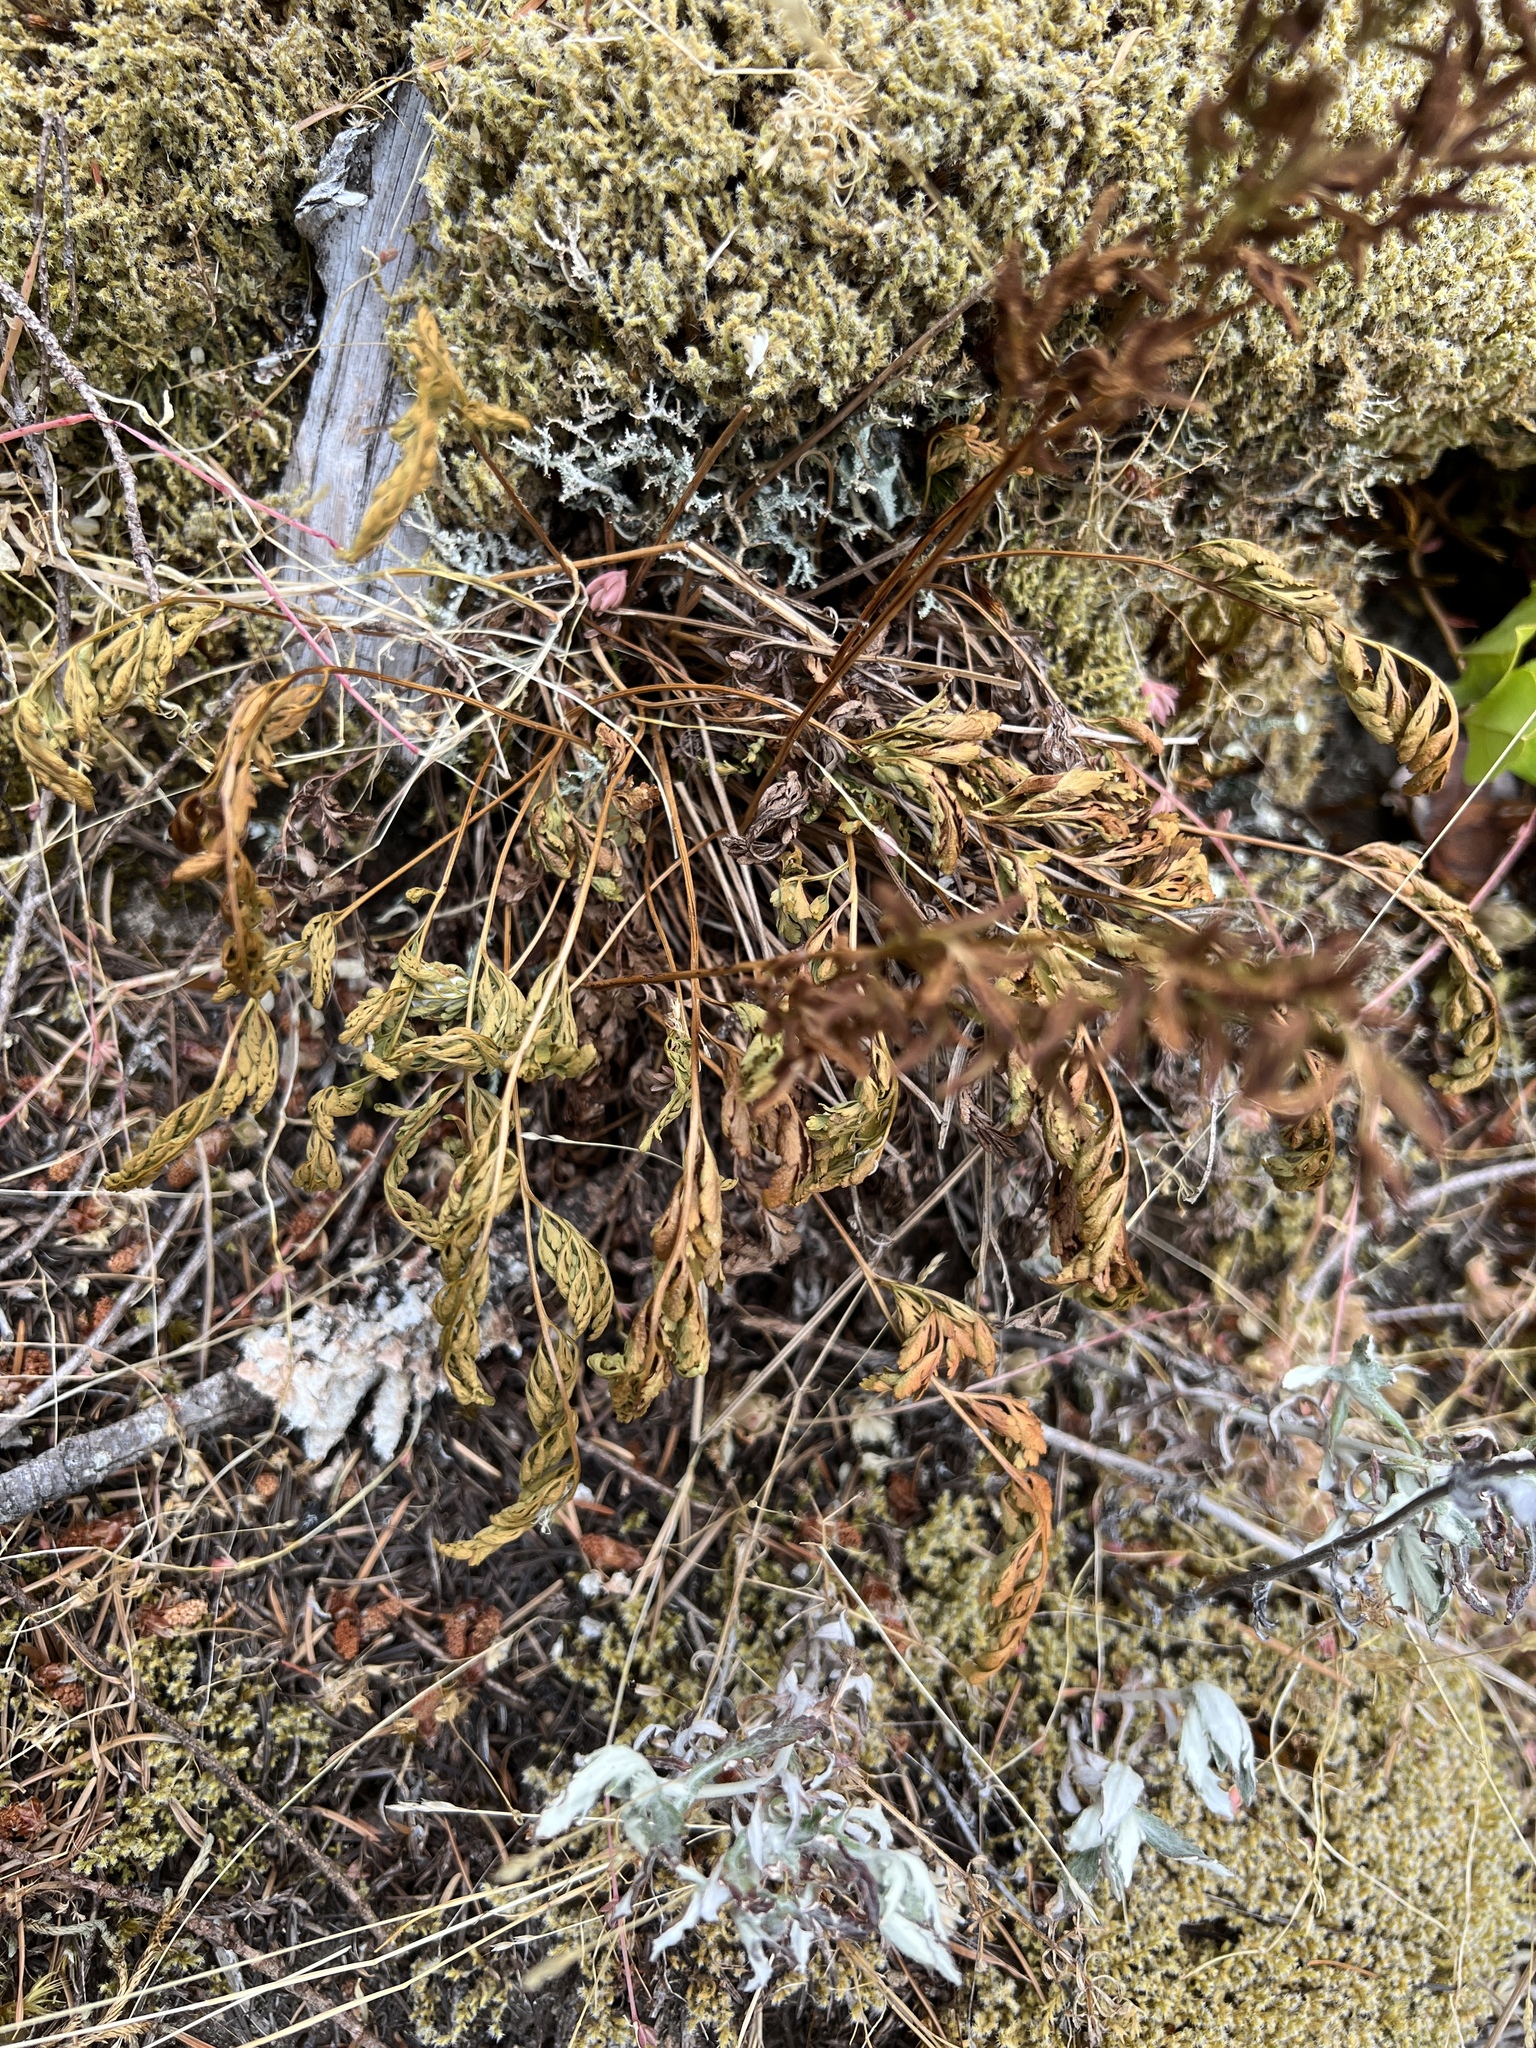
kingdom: Plantae
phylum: Tracheophyta
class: Polypodiopsida
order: Polypodiales
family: Pteridaceae
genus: Cryptogramma
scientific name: Cryptogramma acrostichoides
